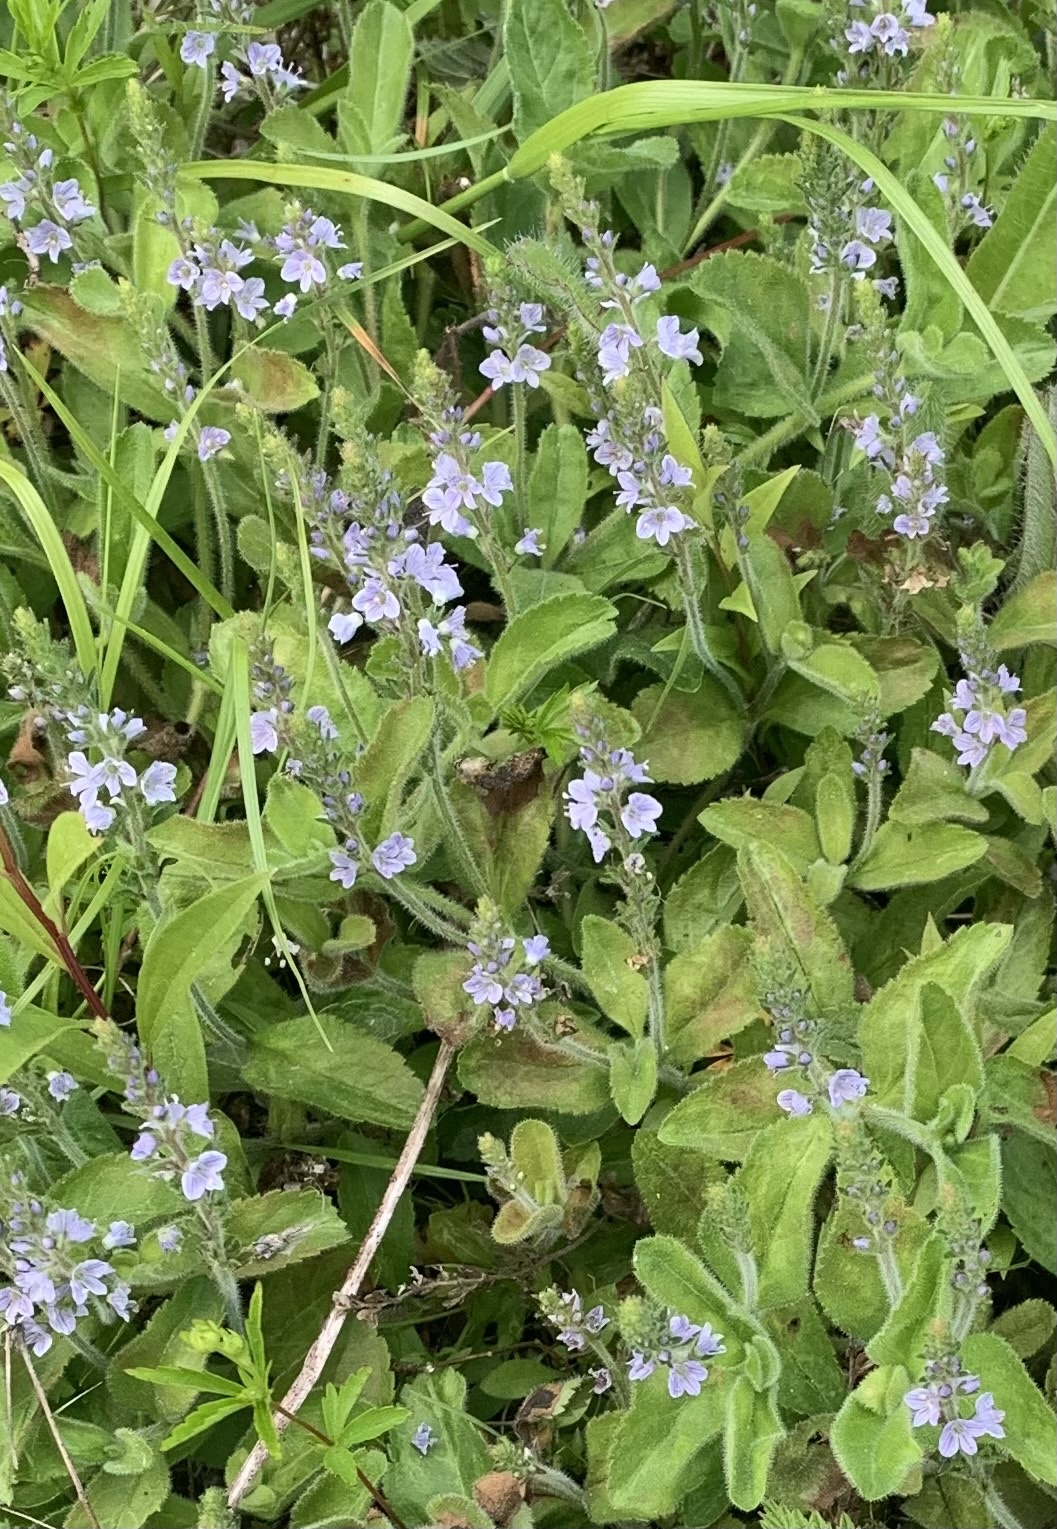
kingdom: Plantae
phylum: Tracheophyta
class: Magnoliopsida
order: Lamiales
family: Plantaginaceae
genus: Veronica
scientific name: Veronica officinalis
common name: Common speedwell
